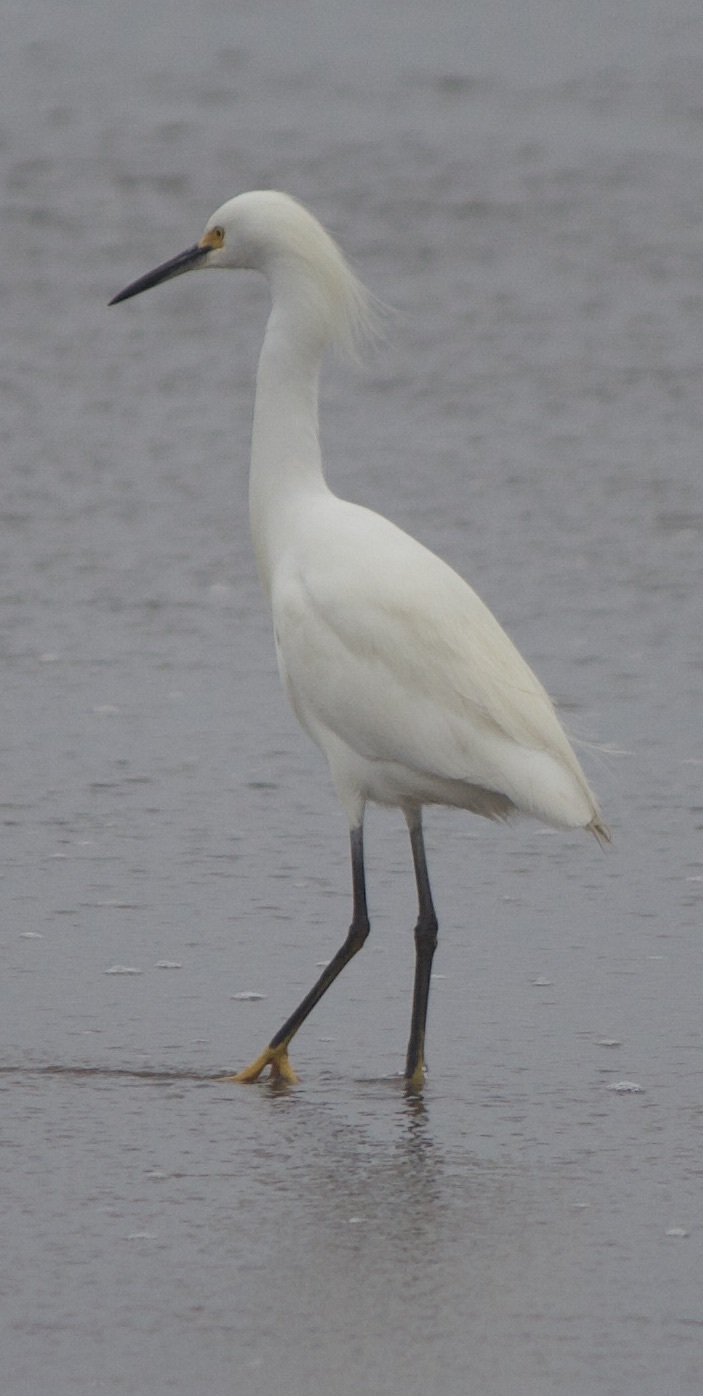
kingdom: Animalia
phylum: Chordata
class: Aves
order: Pelecaniformes
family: Ardeidae
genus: Egretta
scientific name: Egretta thula
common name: Snowy egret
